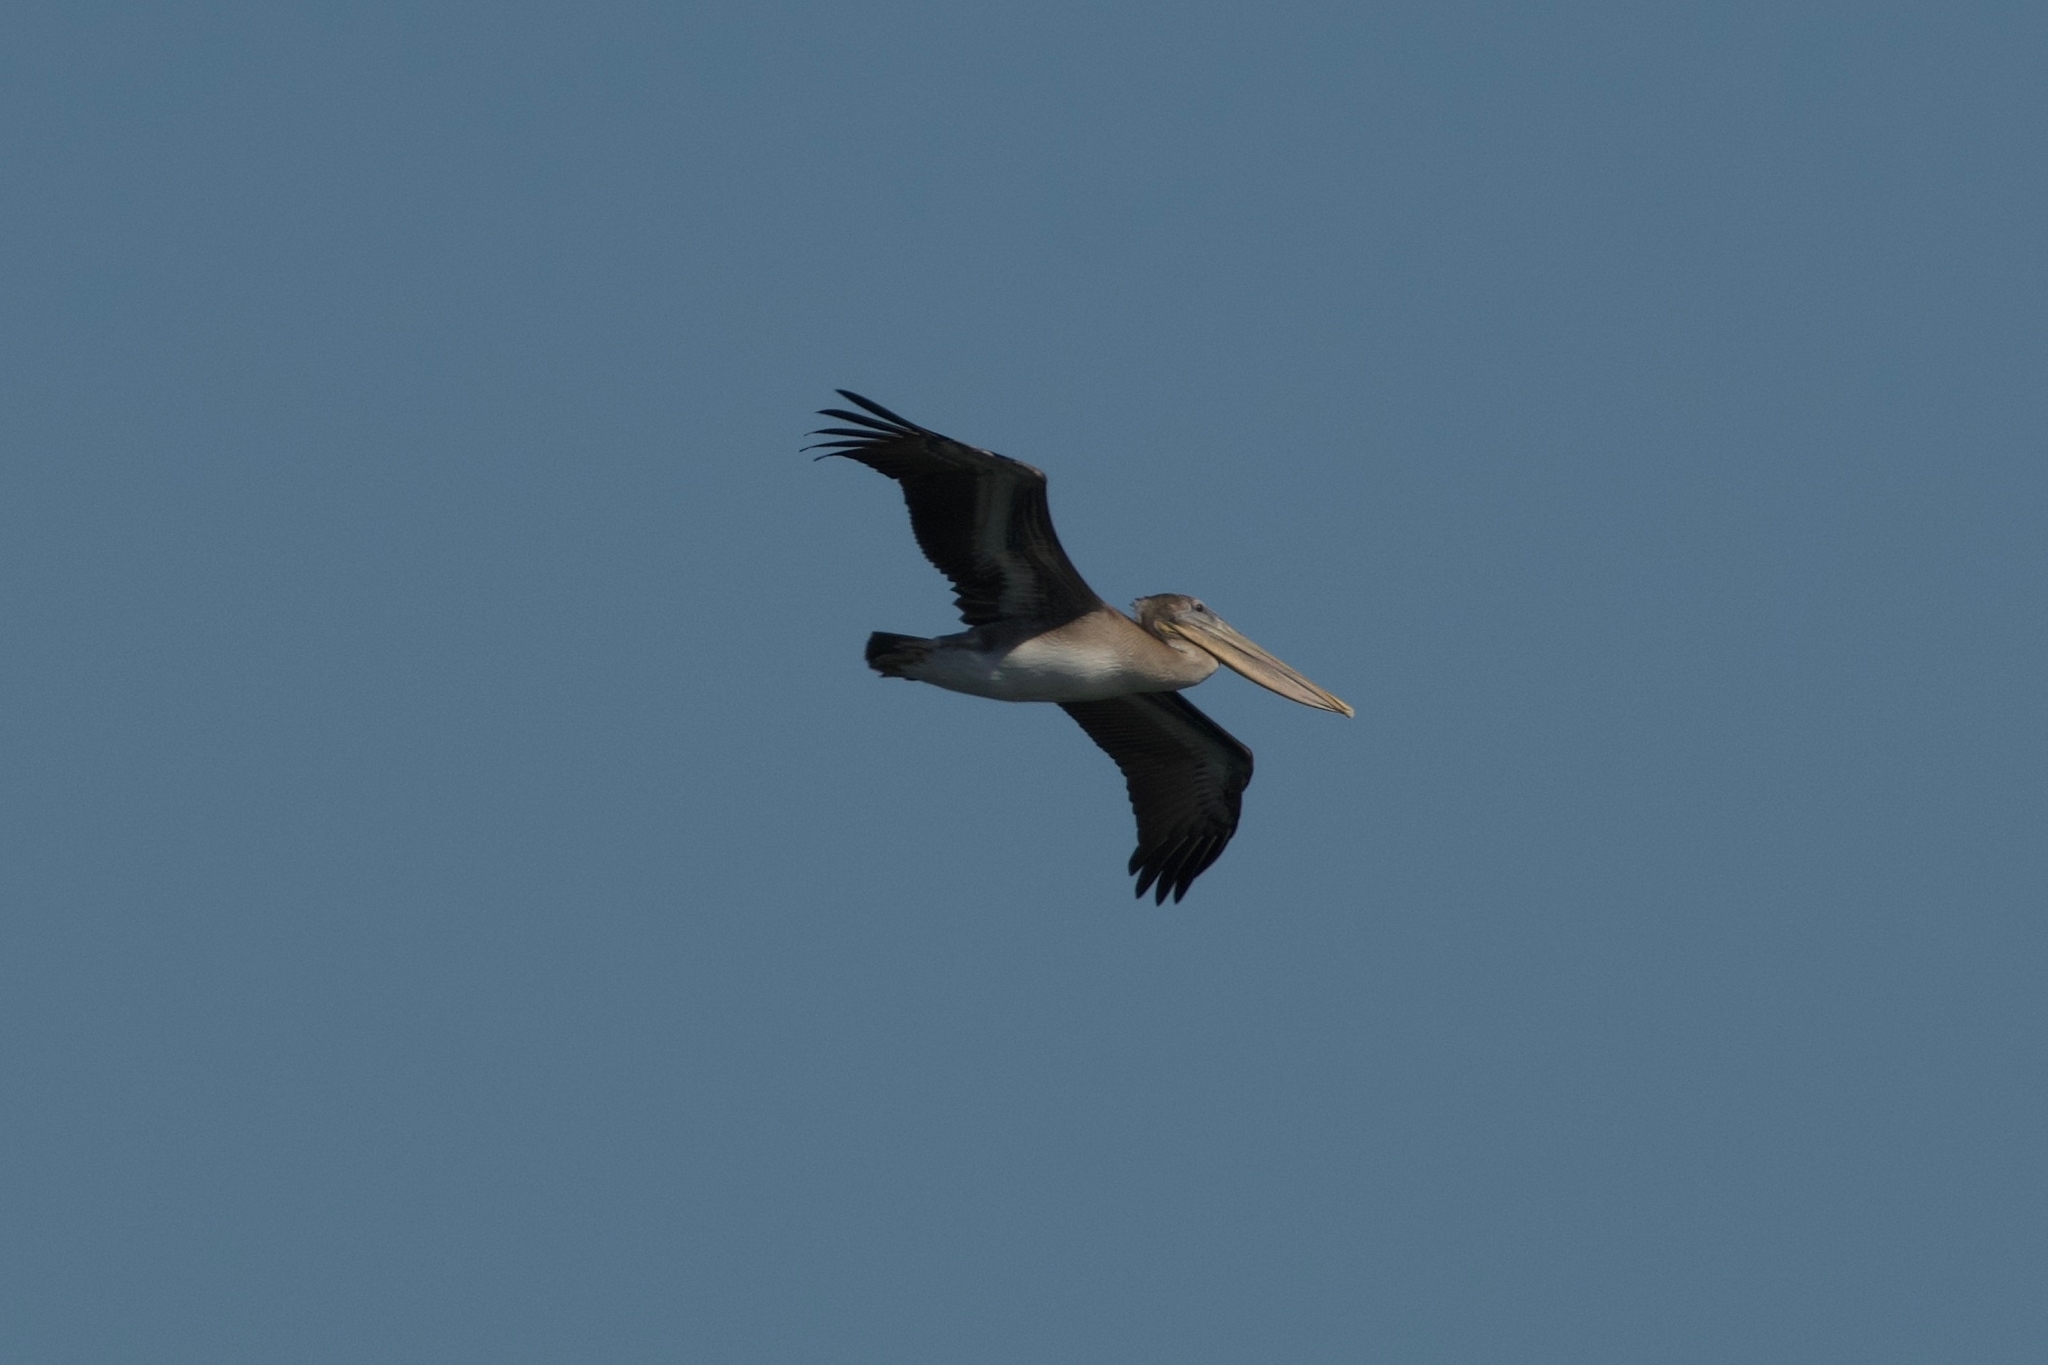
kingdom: Animalia
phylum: Chordata
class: Aves
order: Pelecaniformes
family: Pelecanidae
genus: Pelecanus
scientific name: Pelecanus occidentalis
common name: Brown pelican
